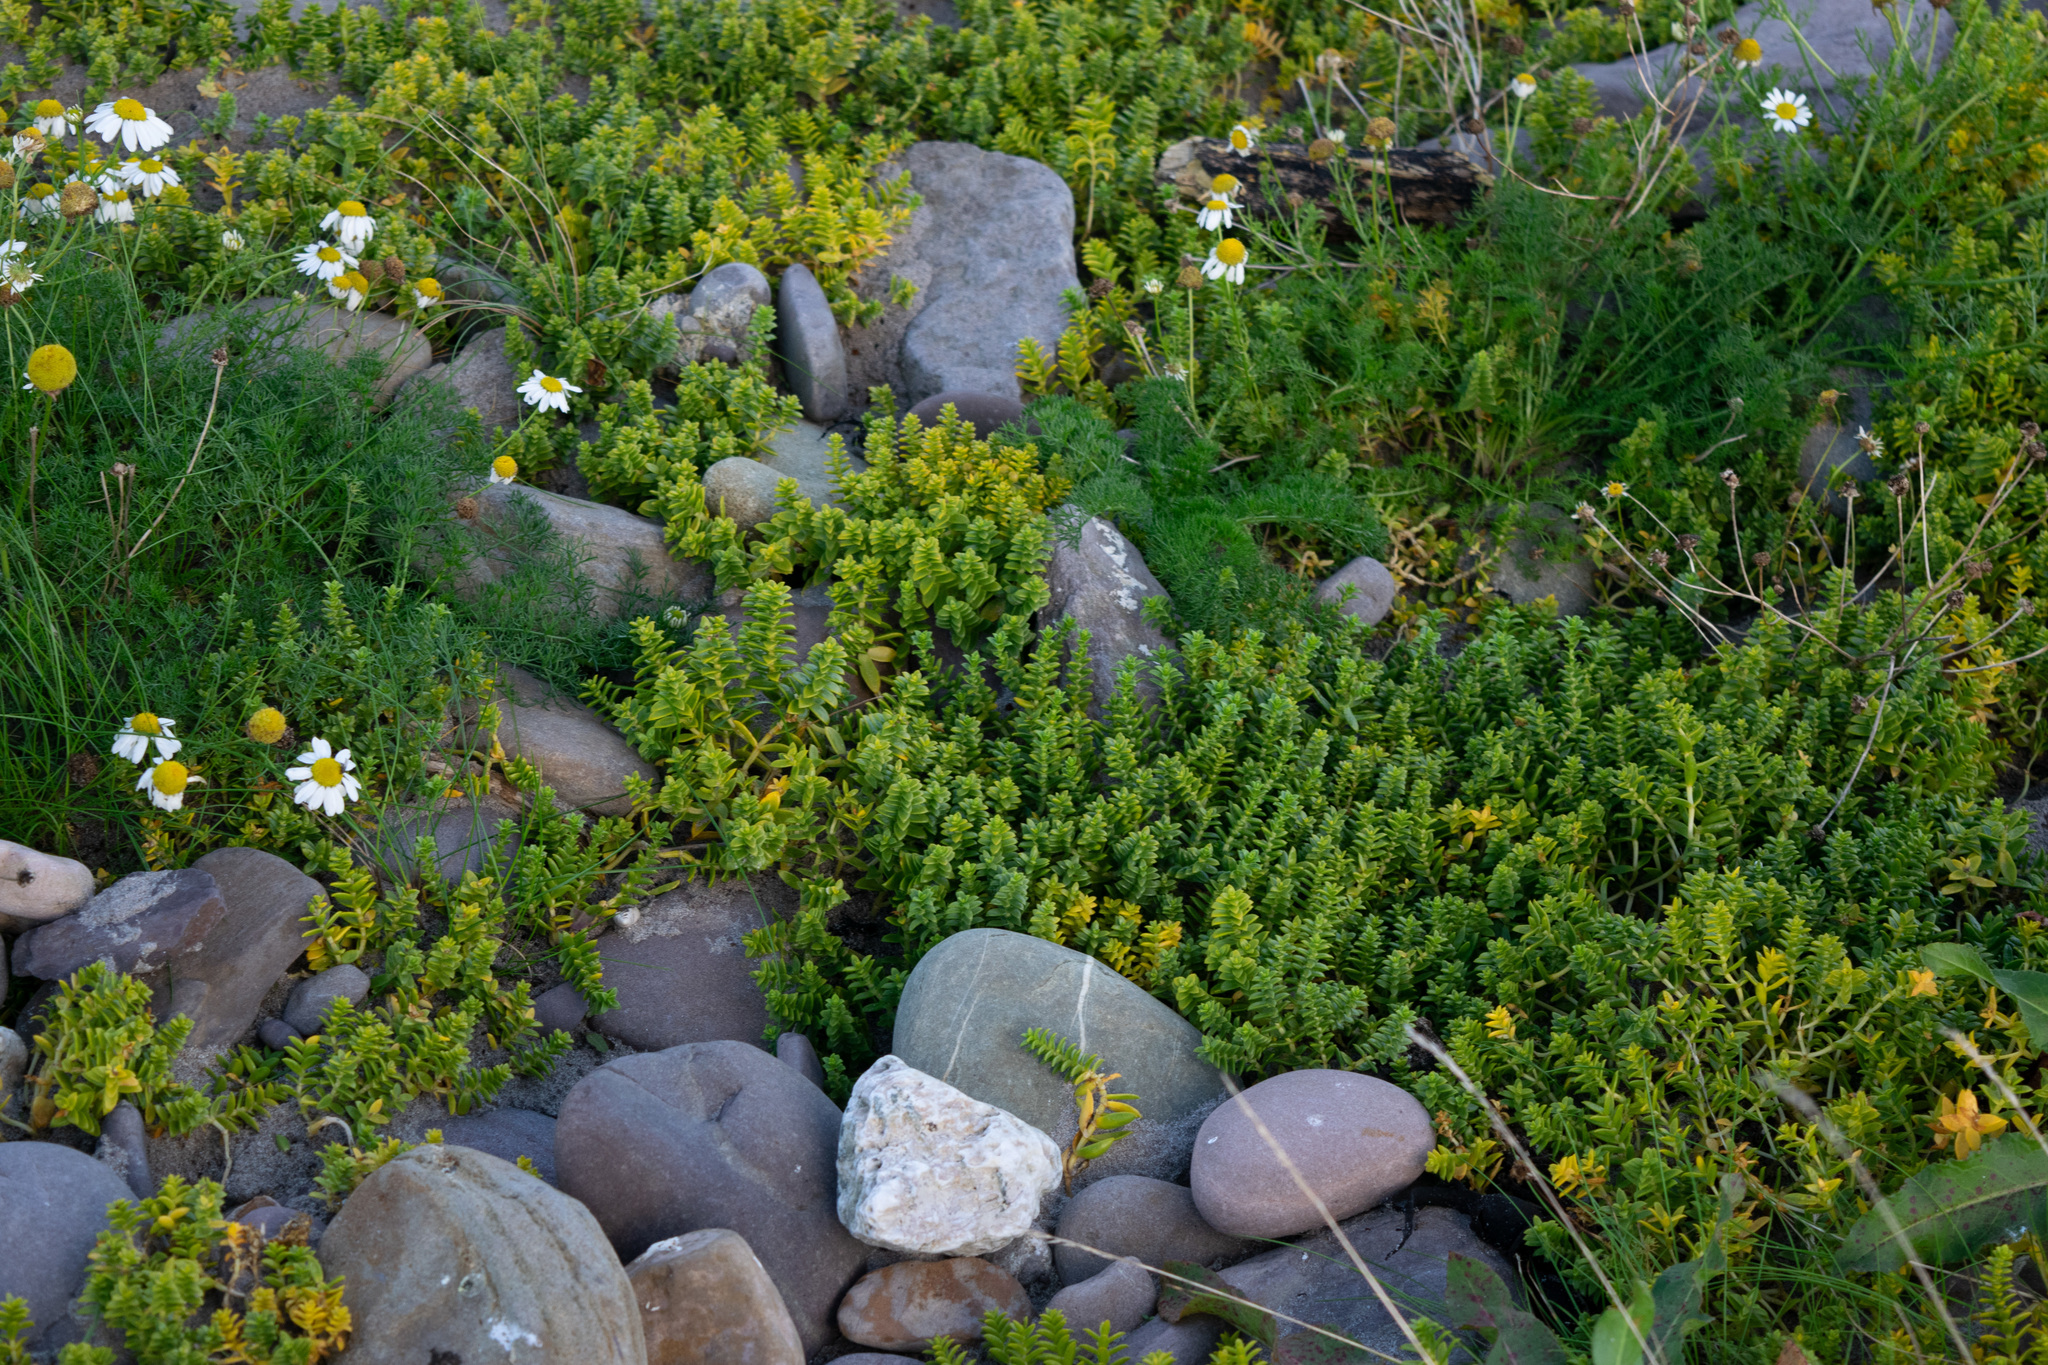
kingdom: Plantae
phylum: Tracheophyta
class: Magnoliopsida
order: Caryophyllales
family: Caryophyllaceae
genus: Honckenya
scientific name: Honckenya peploides
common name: Sea sandwort
